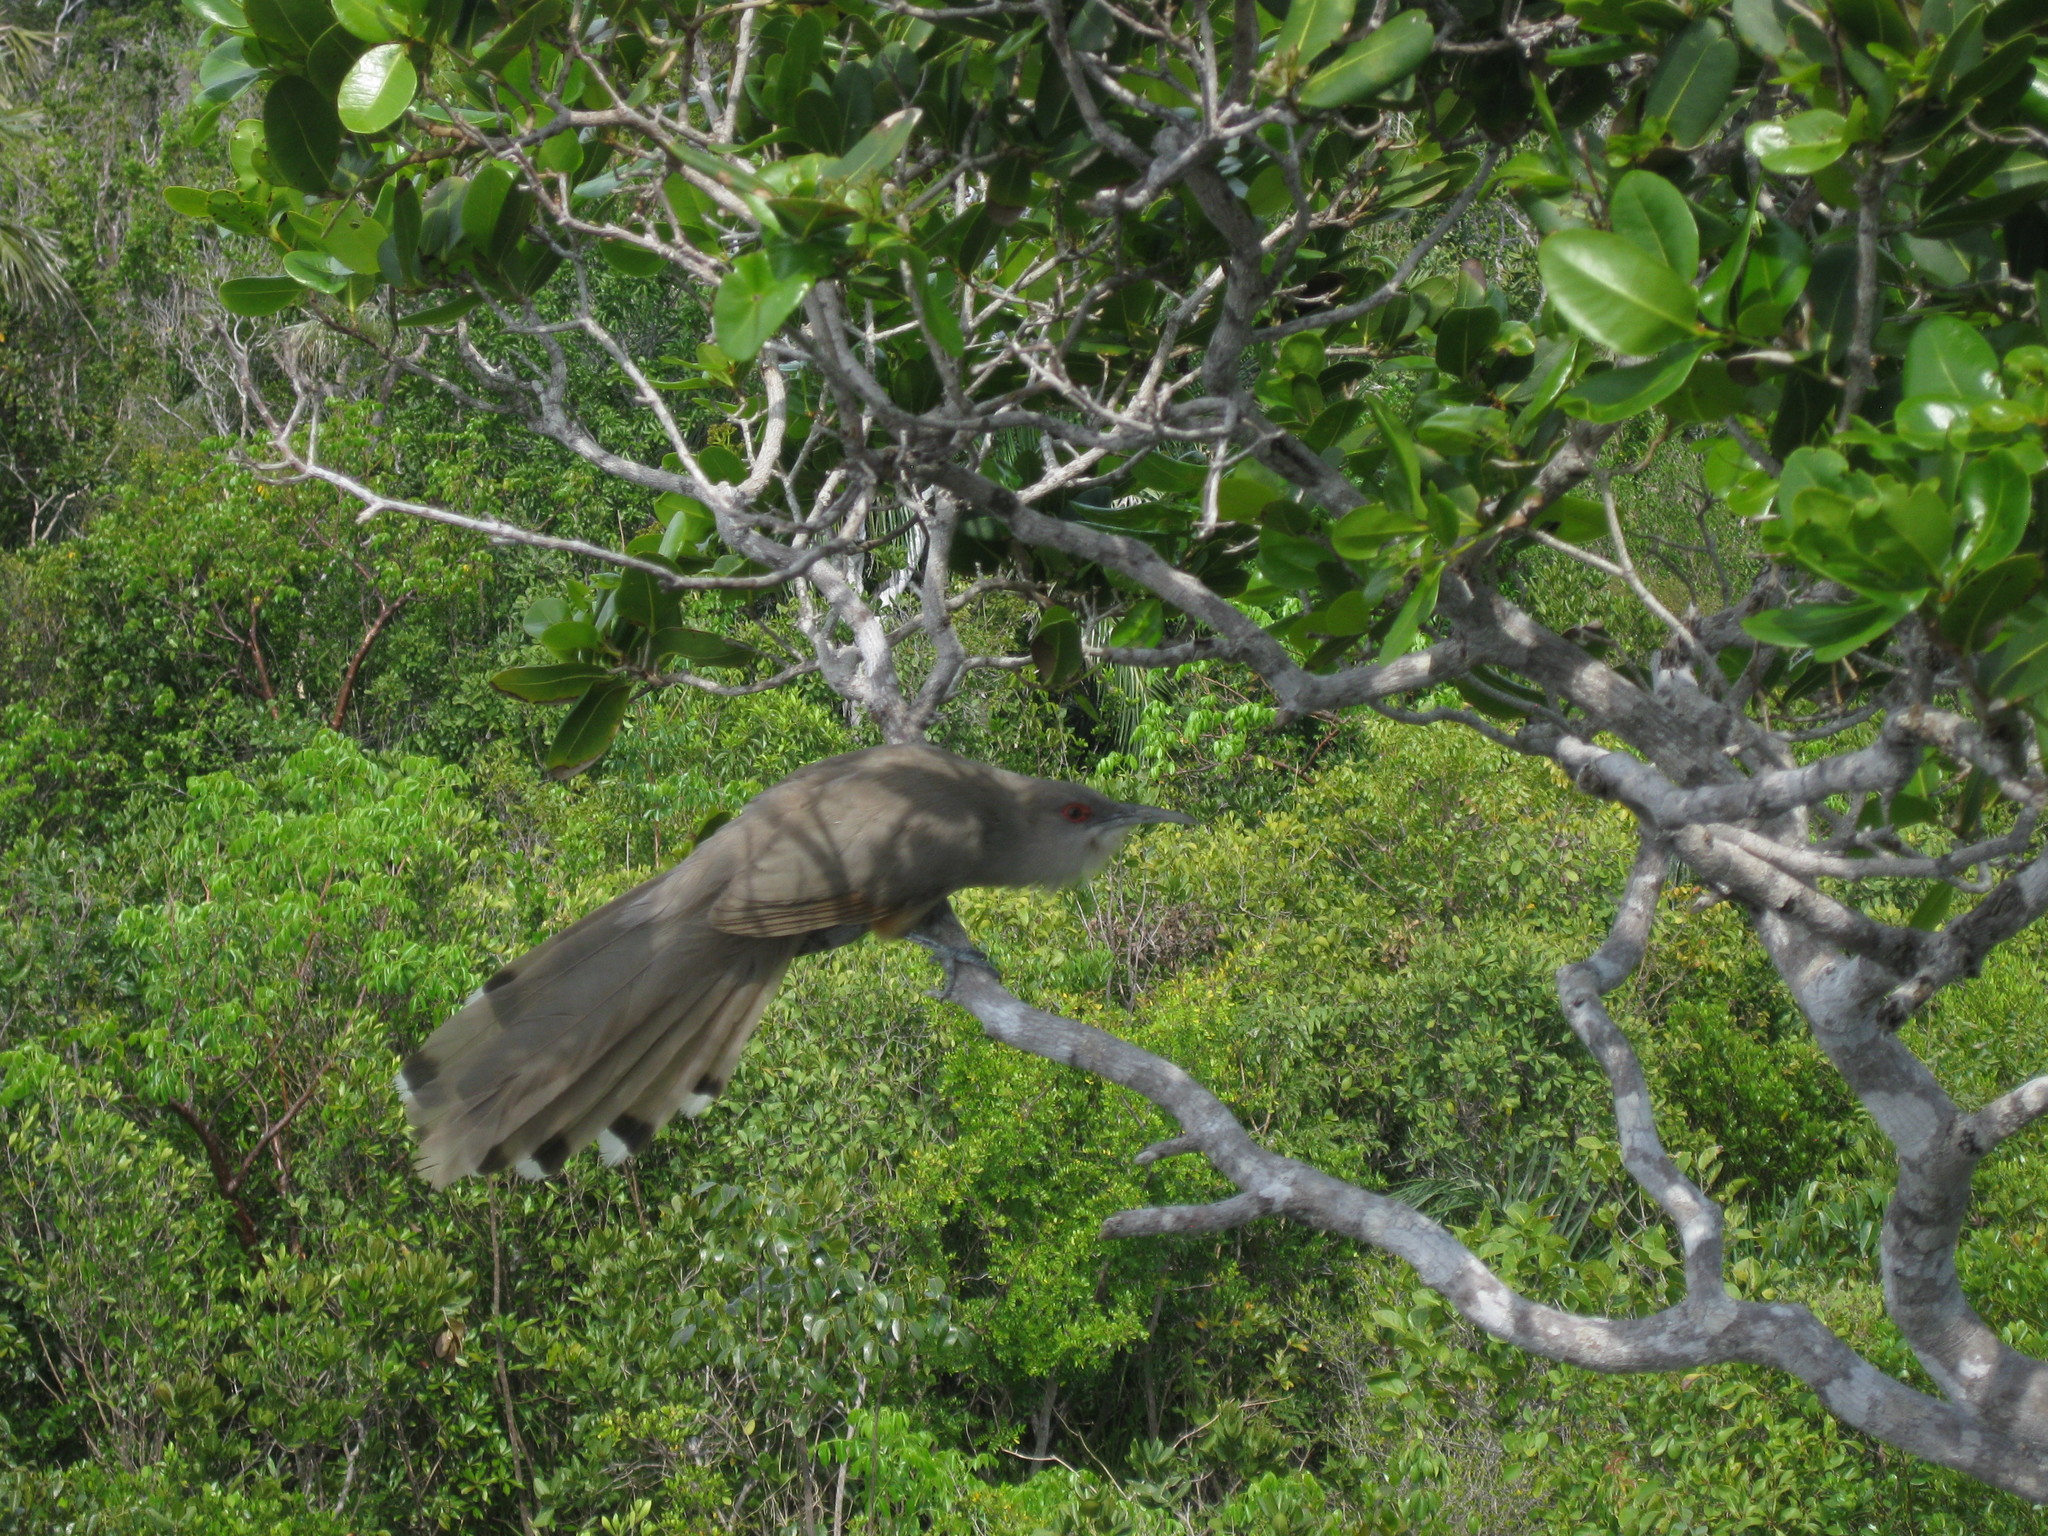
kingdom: Animalia
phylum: Chordata
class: Aves
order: Cuculiformes
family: Cuculidae
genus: Saurothera
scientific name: Saurothera merlini
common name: Great lizard-cuckoo
